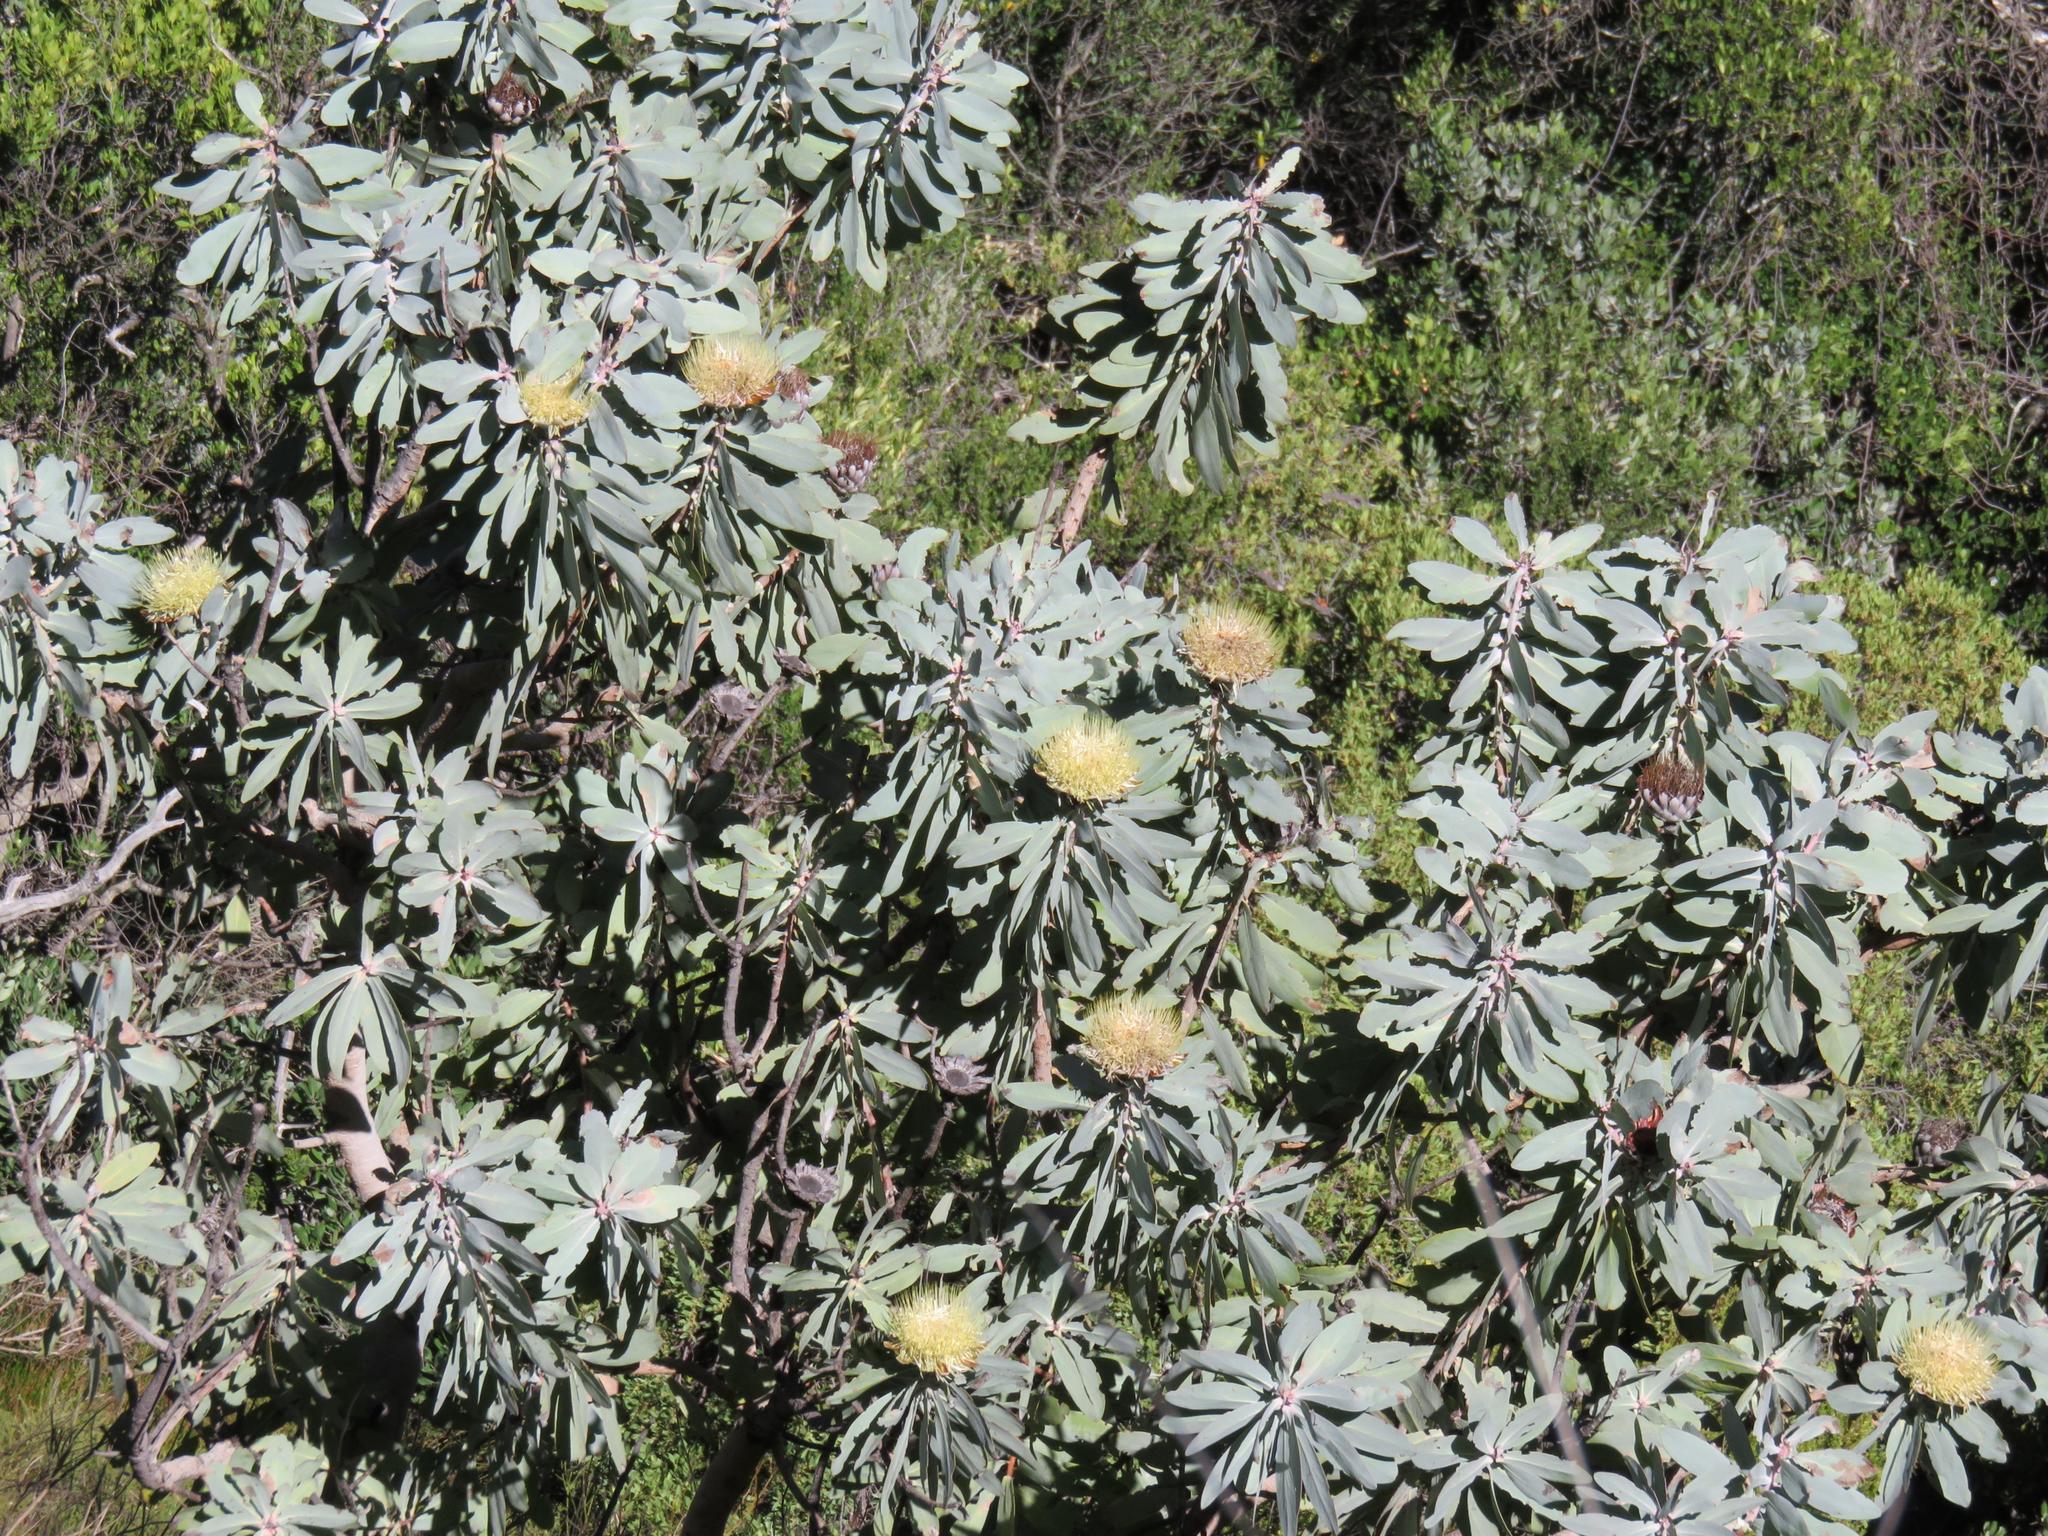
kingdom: Plantae
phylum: Tracheophyta
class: Magnoliopsida
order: Proteales
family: Proteaceae
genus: Protea
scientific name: Protea nitida
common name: Tree protea
